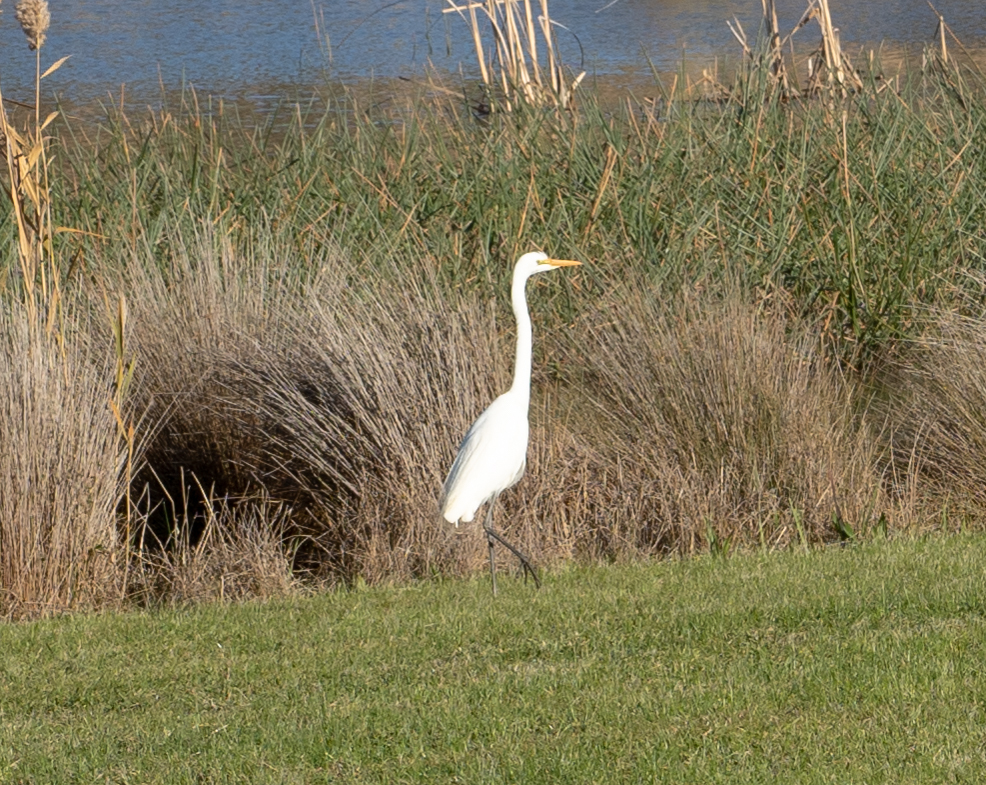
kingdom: Animalia
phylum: Chordata
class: Aves
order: Pelecaniformes
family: Ardeidae
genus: Egretta
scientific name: Egretta intermedia
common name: Intermediate egret
